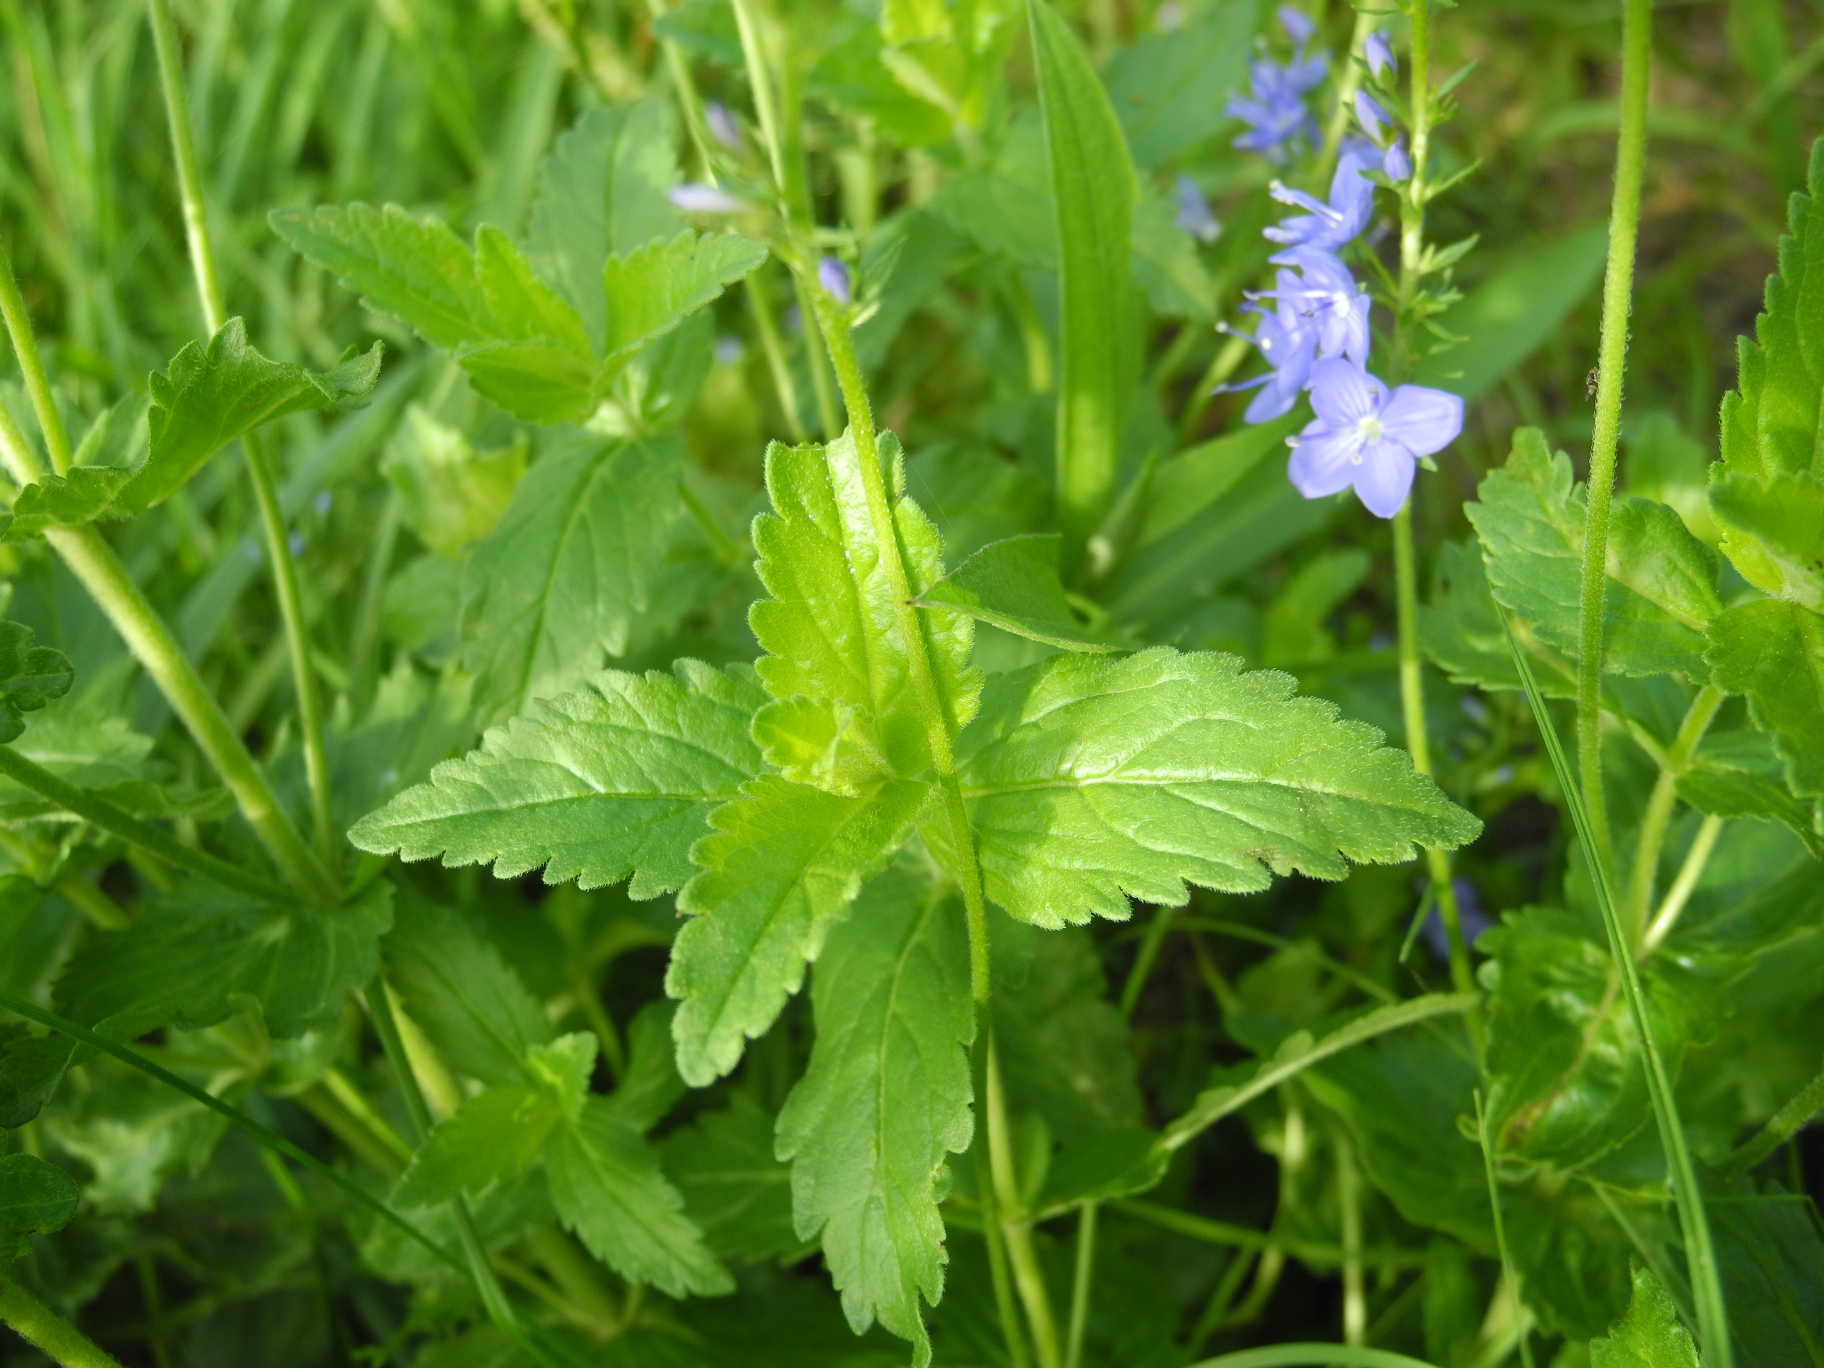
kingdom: Plantae
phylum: Tracheophyta
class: Magnoliopsida
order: Lamiales
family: Plantaginaceae
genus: Veronica
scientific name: Veronica teucrium
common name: Large speedwell
